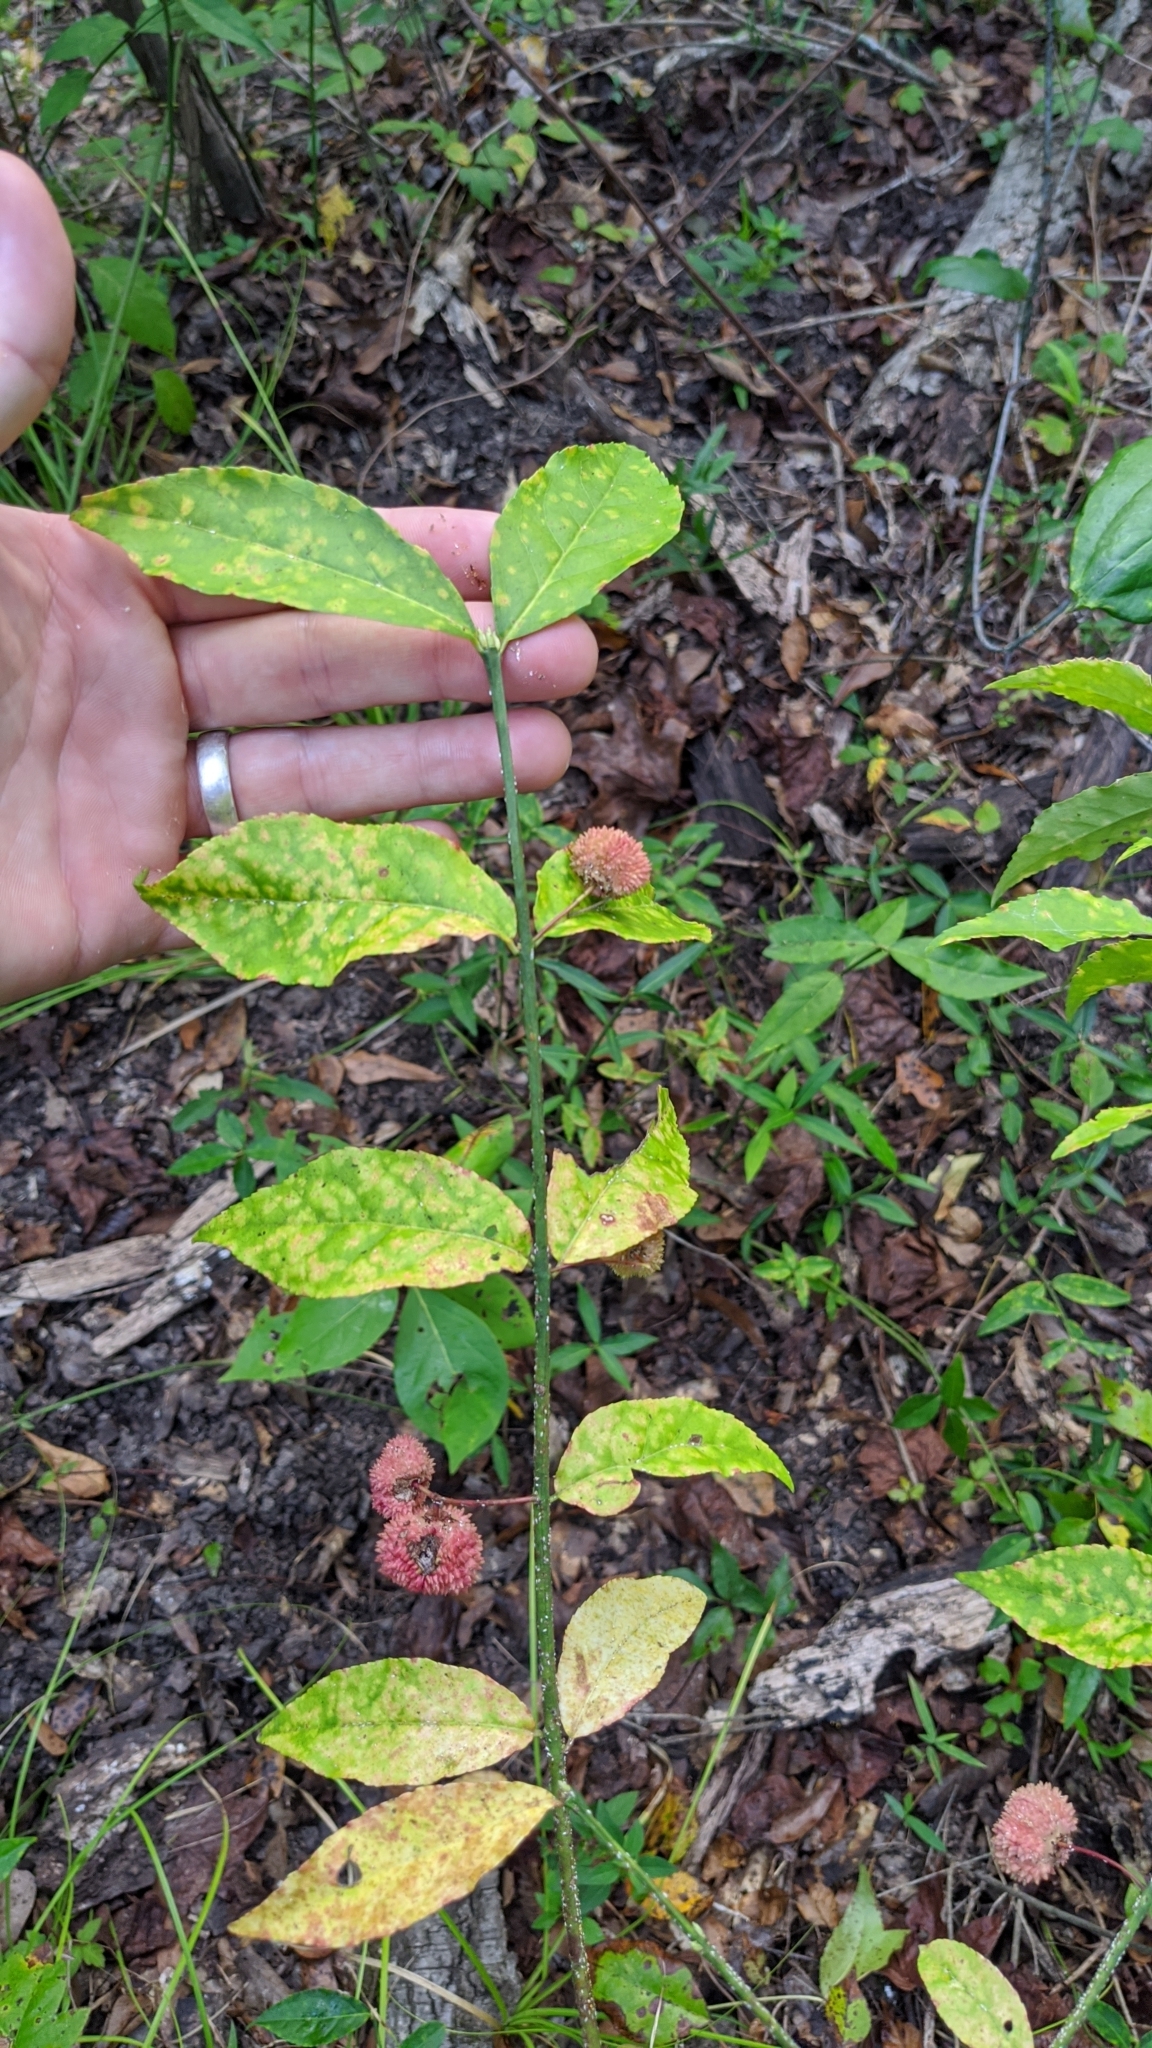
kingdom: Plantae
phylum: Tracheophyta
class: Magnoliopsida
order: Celastrales
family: Celastraceae
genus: Euonymus
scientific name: Euonymus americanus
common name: Bursting-heart
